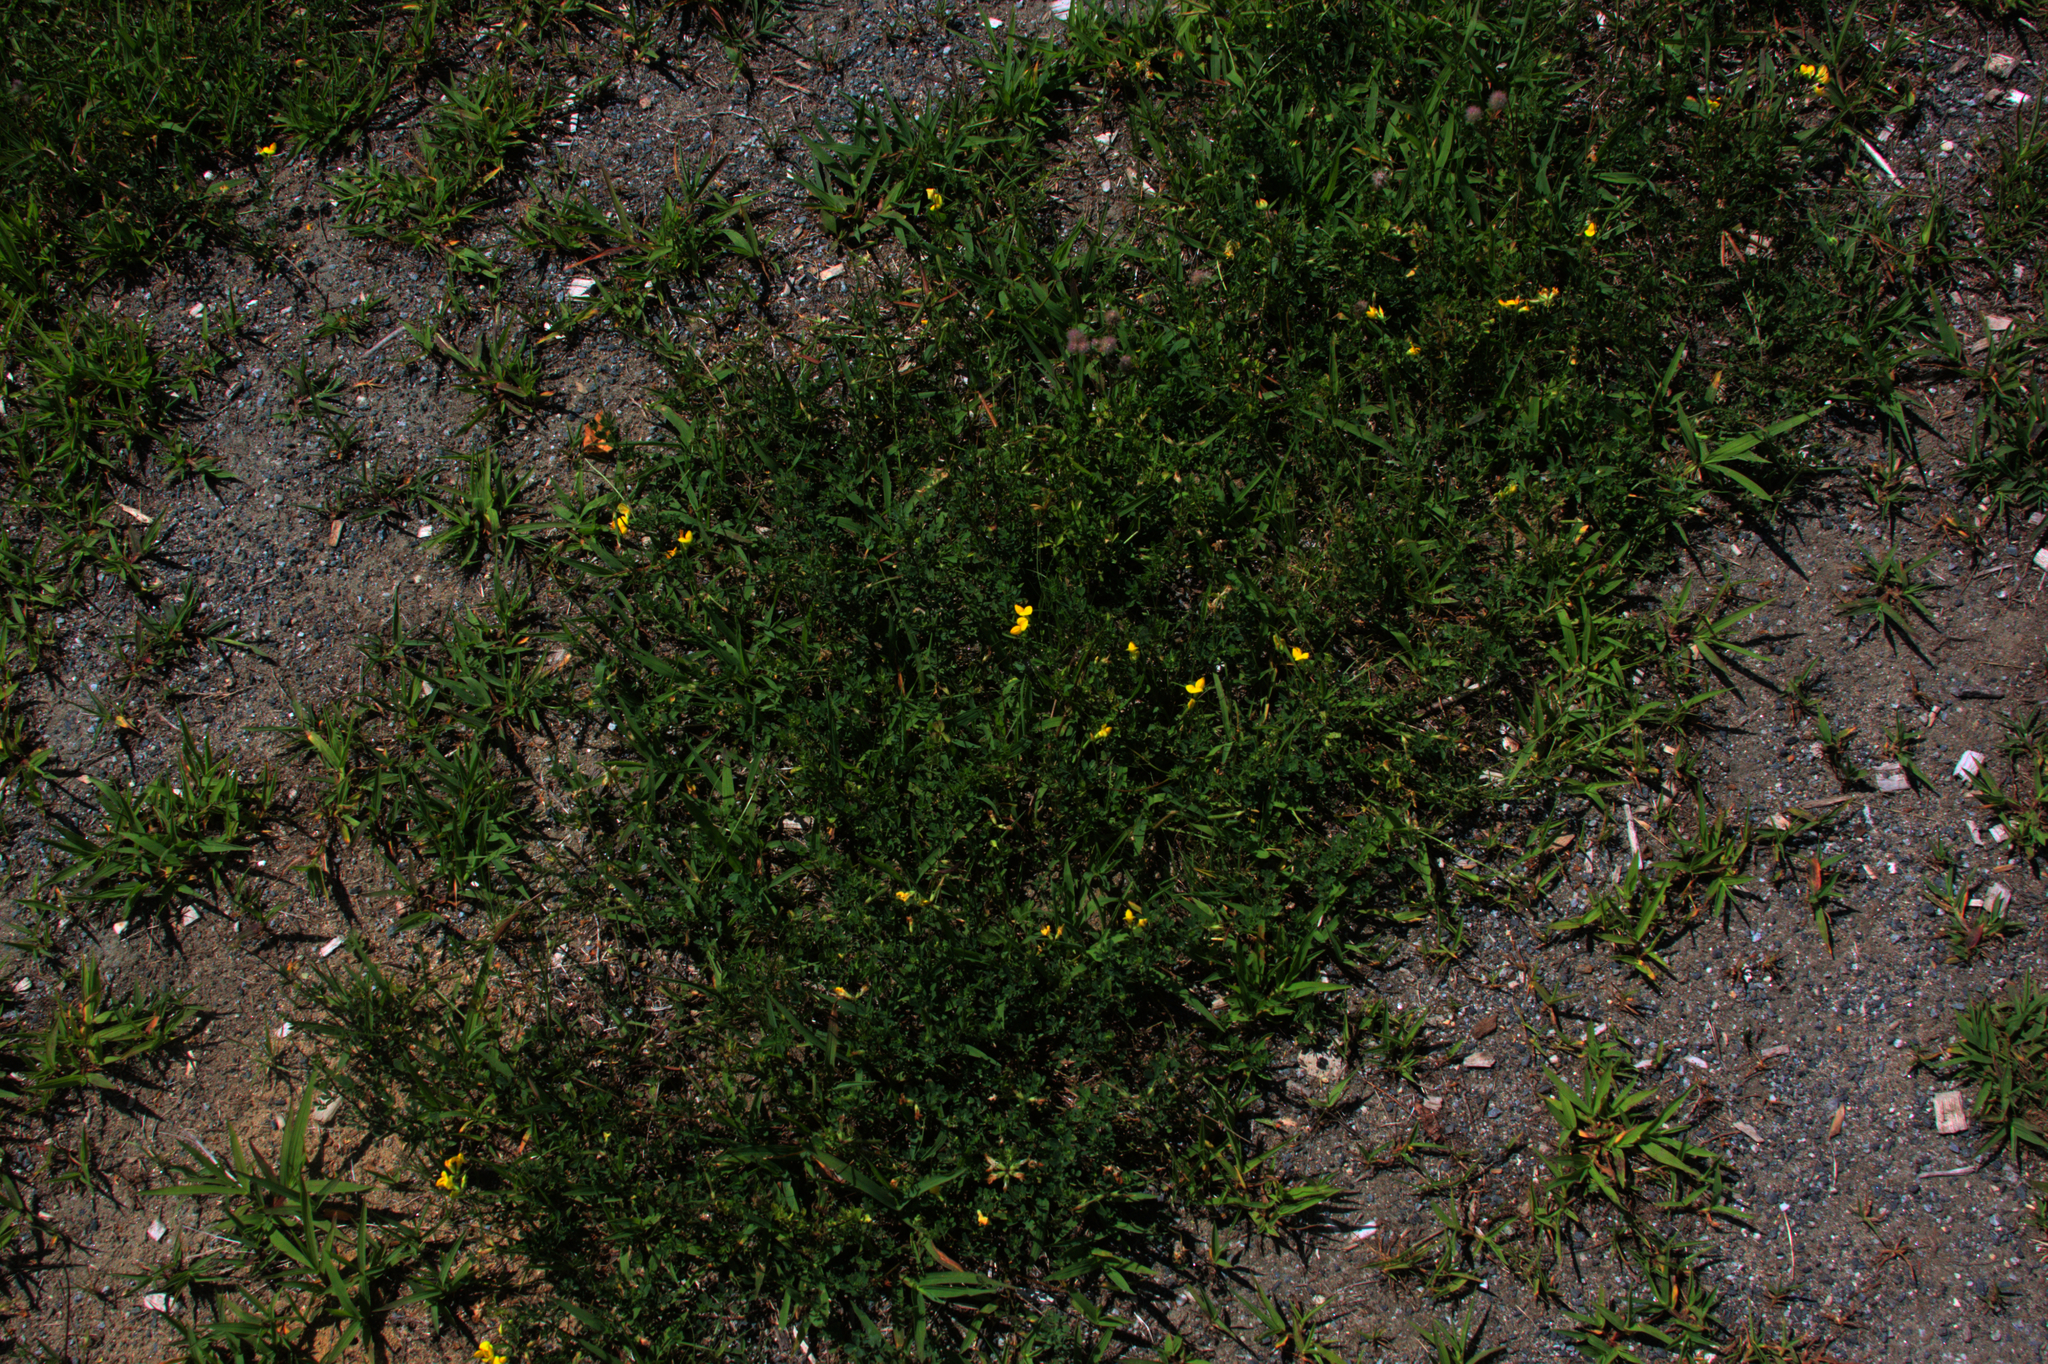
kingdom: Plantae
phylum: Tracheophyta
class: Magnoliopsida
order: Fabales
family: Fabaceae
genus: Lotus
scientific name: Lotus corniculatus
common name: Common bird's-foot-trefoil
